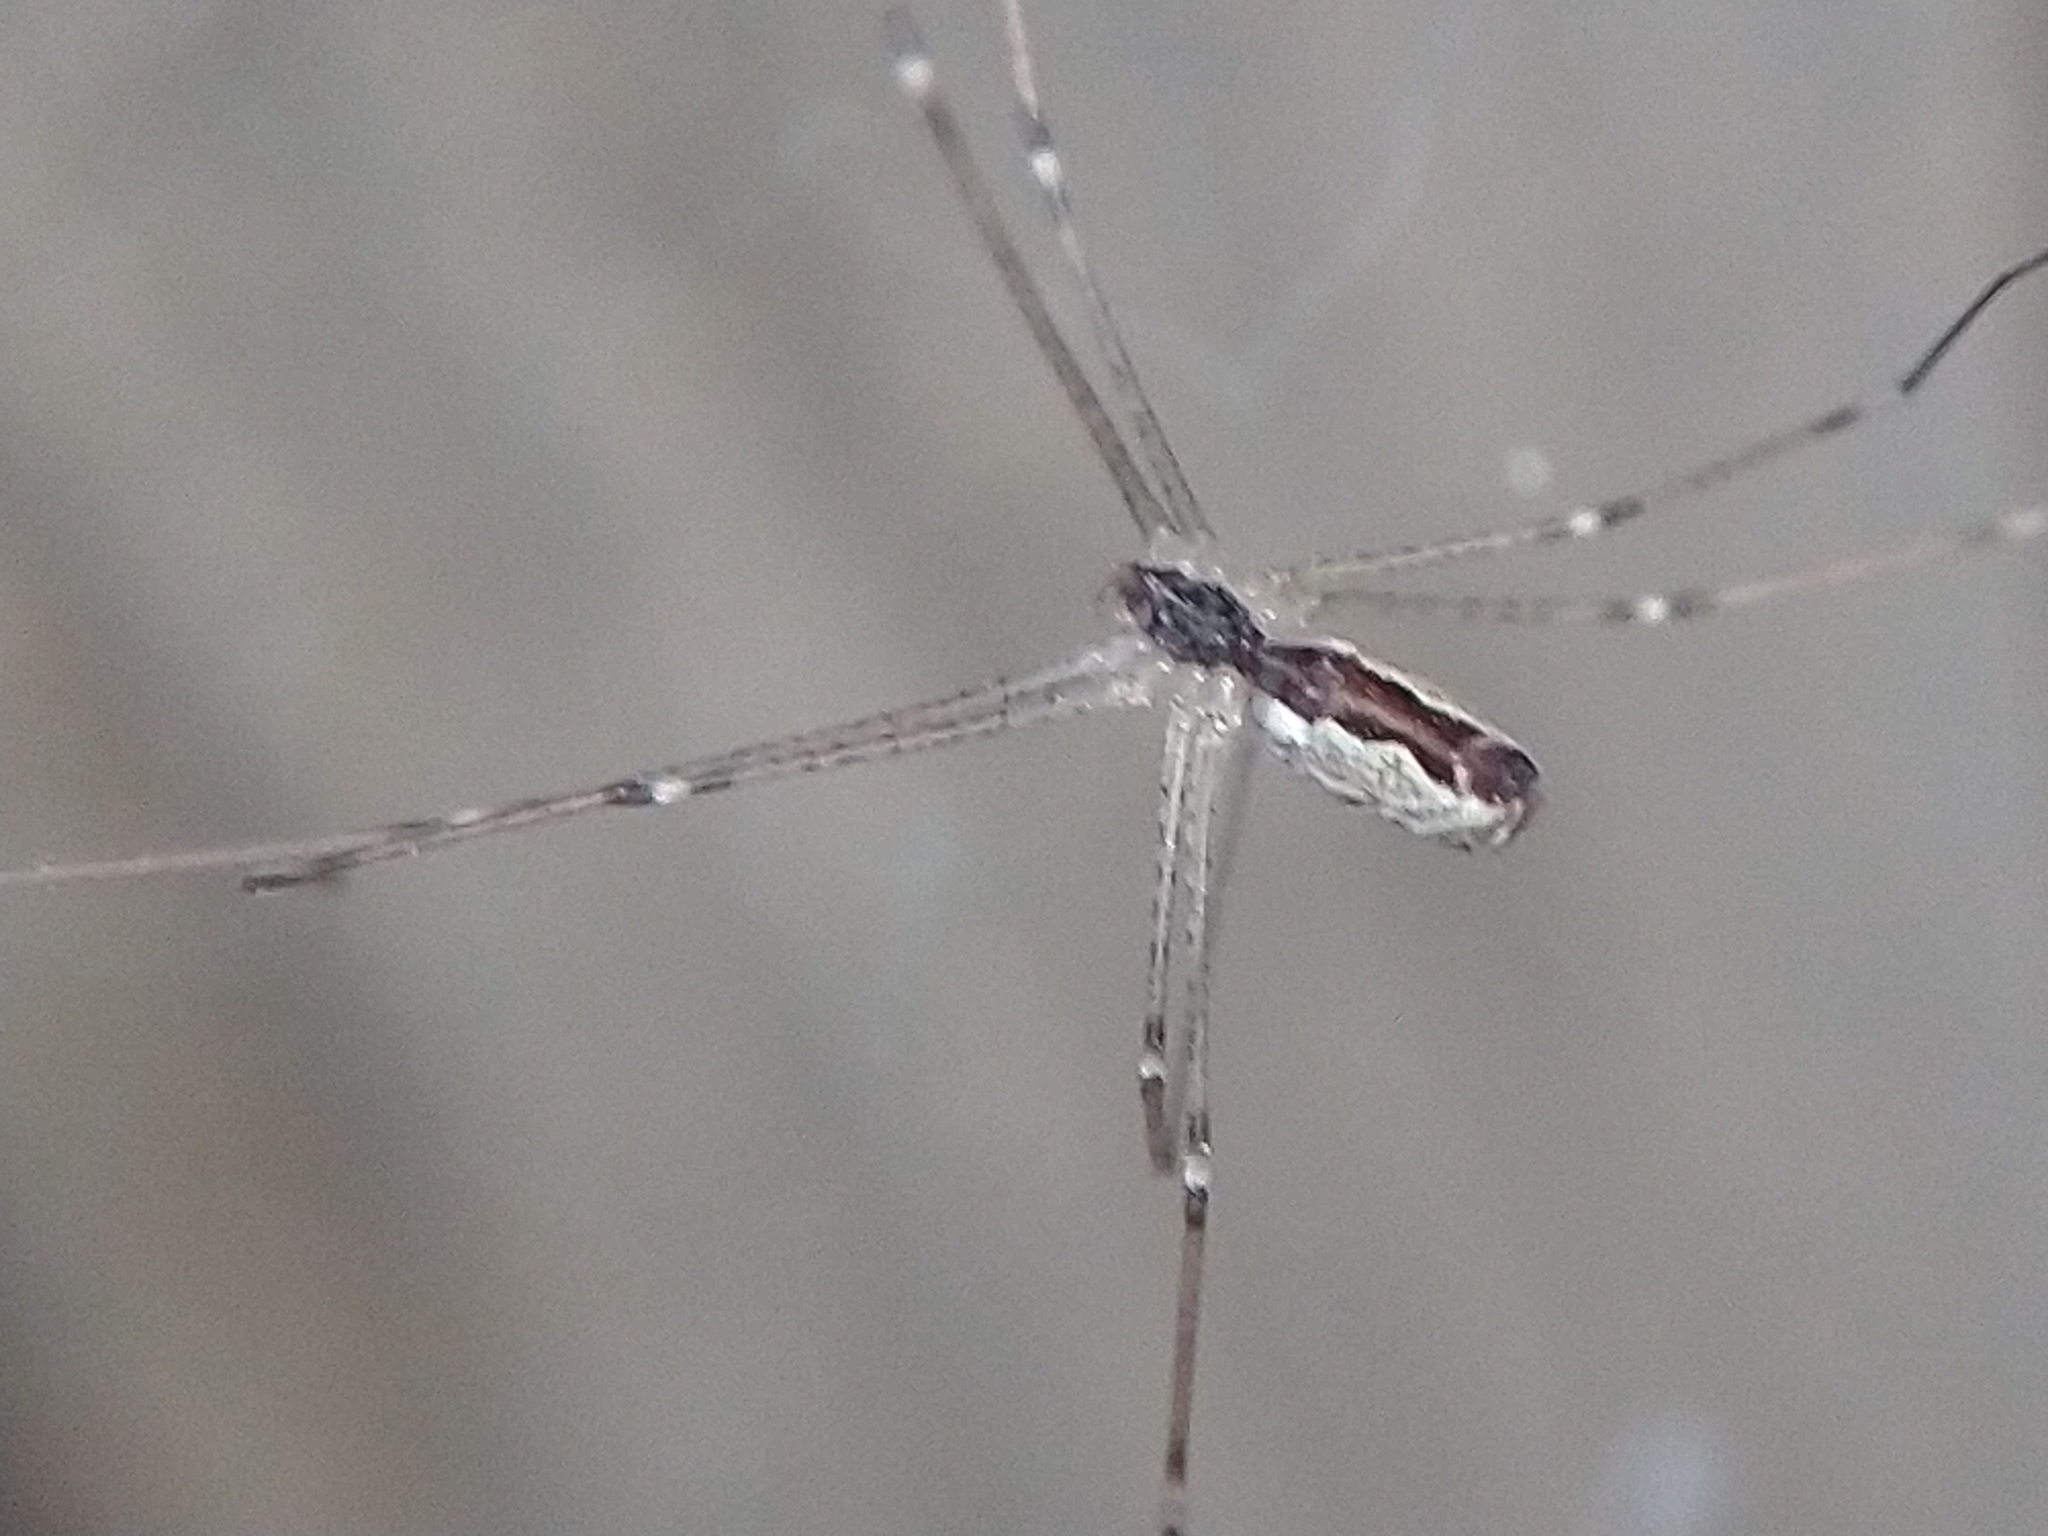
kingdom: Animalia
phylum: Arthropoda
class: Arachnida
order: Araneae
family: Pholcidae
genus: Holocnemus
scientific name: Holocnemus pluchei
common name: Marbled cellar spider
